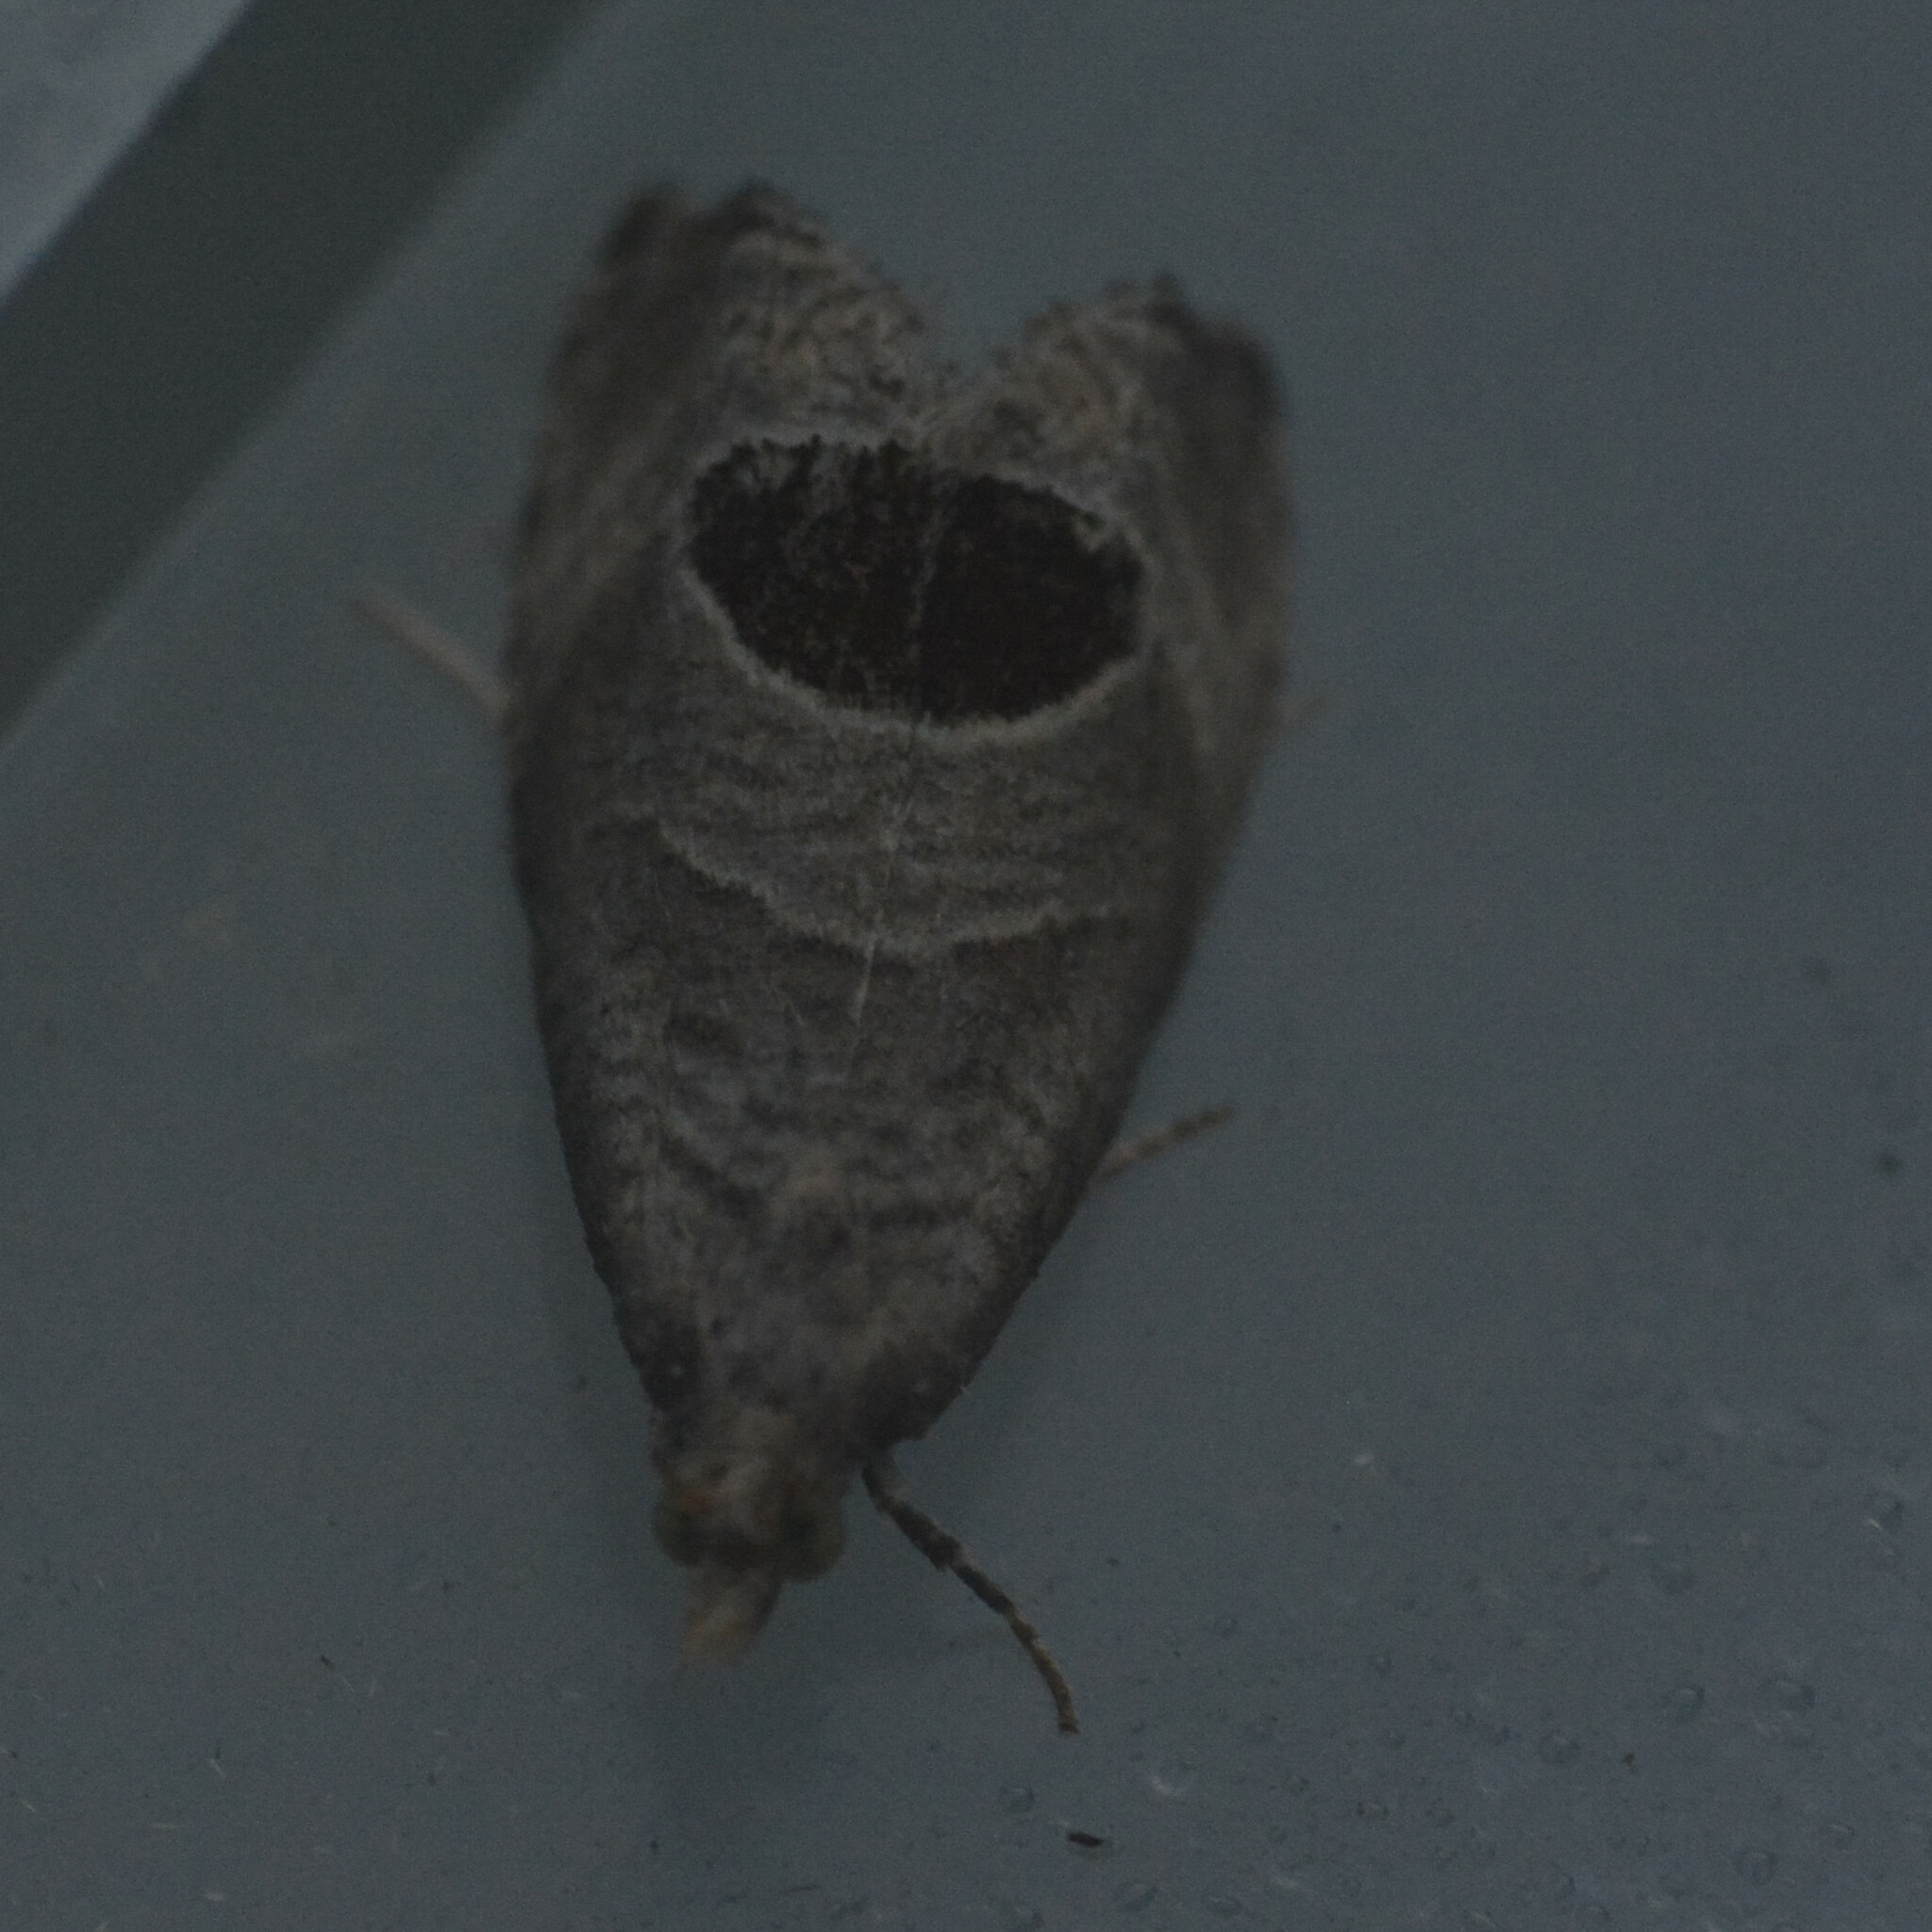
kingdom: Animalia
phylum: Arthropoda
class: Insecta
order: Lepidoptera
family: Tortricidae
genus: Notocelia
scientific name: Notocelia uddmanniana
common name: Bramble shoot moth
